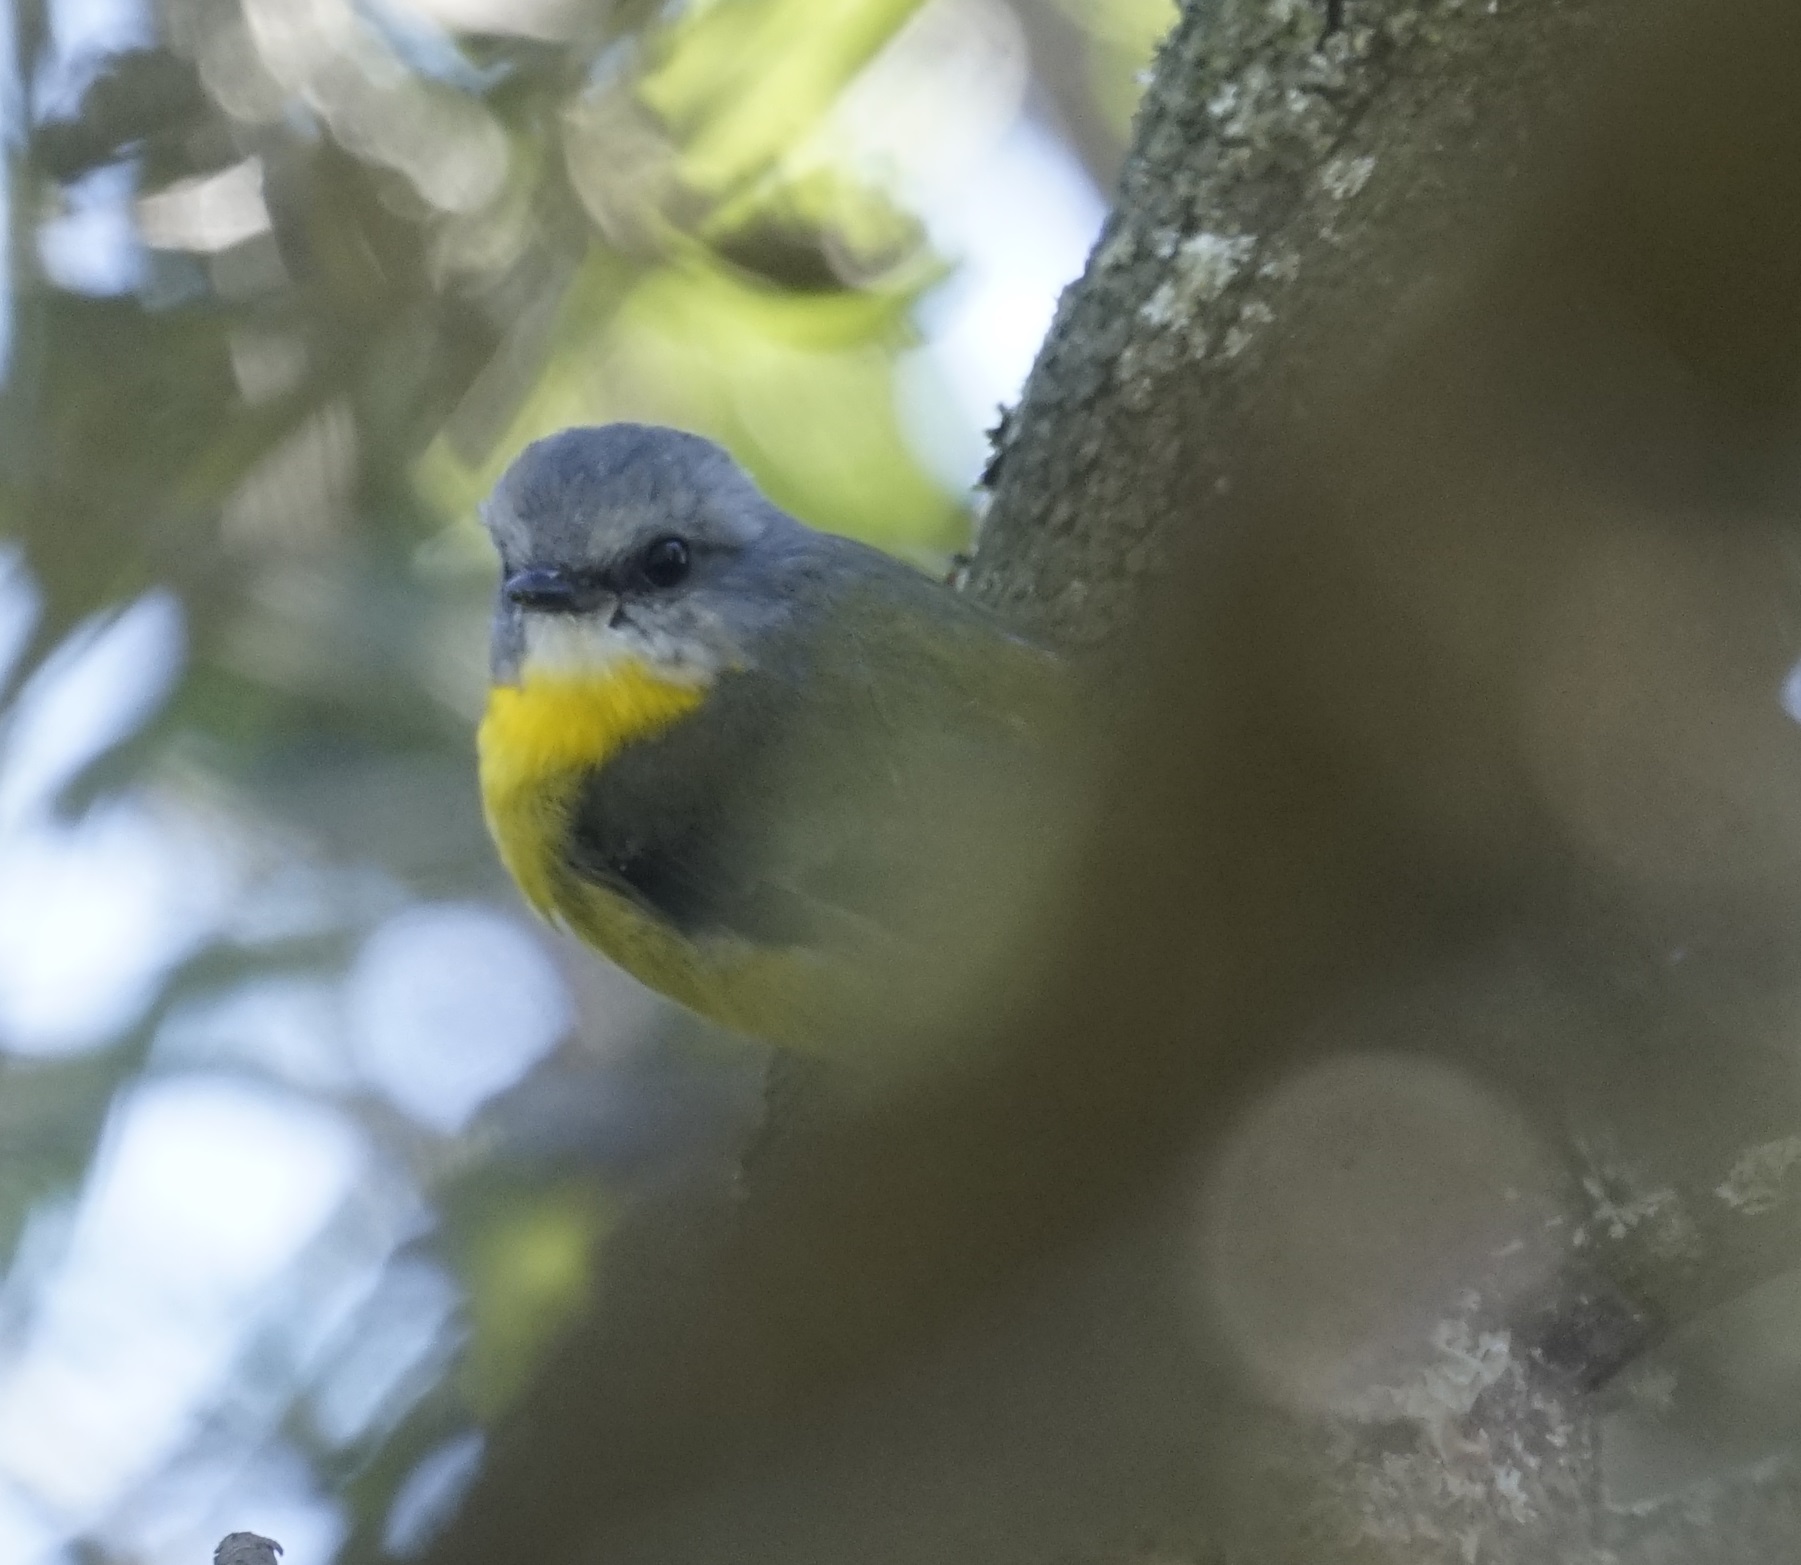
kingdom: Animalia
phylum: Chordata
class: Aves
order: Passeriformes
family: Petroicidae
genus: Eopsaltria
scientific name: Eopsaltria australis
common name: Eastern yellow robin
